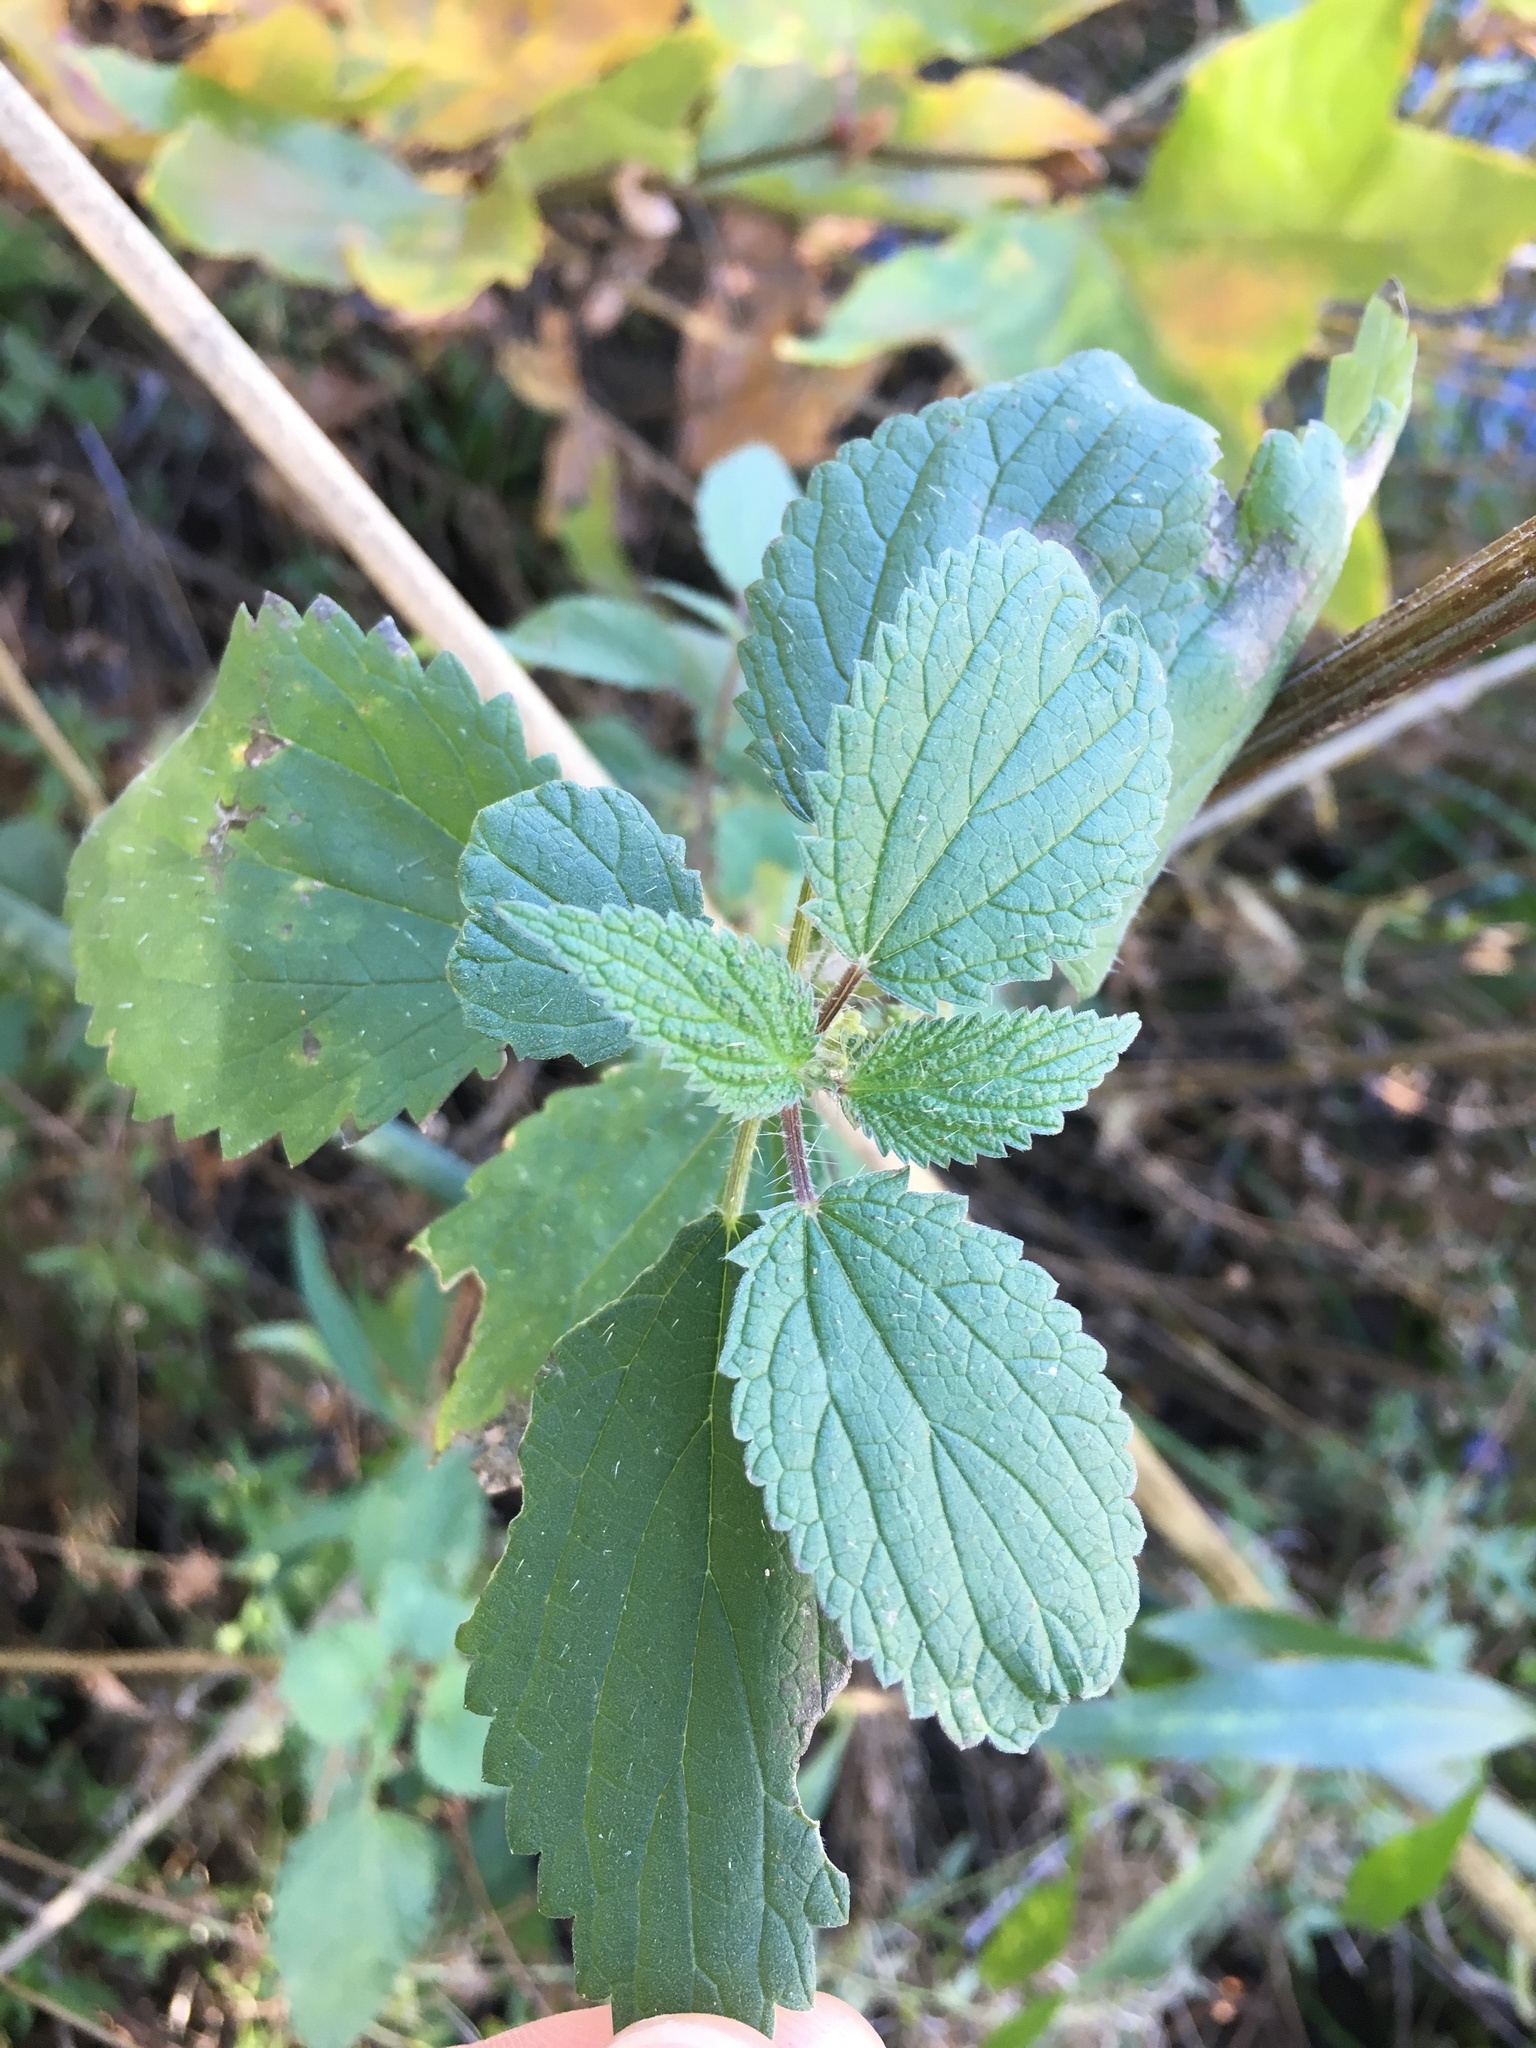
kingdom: Plantae
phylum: Tracheophyta
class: Magnoliopsida
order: Rosales
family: Urticaceae
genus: Urtica
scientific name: Urtica dioica
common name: Common nettle
